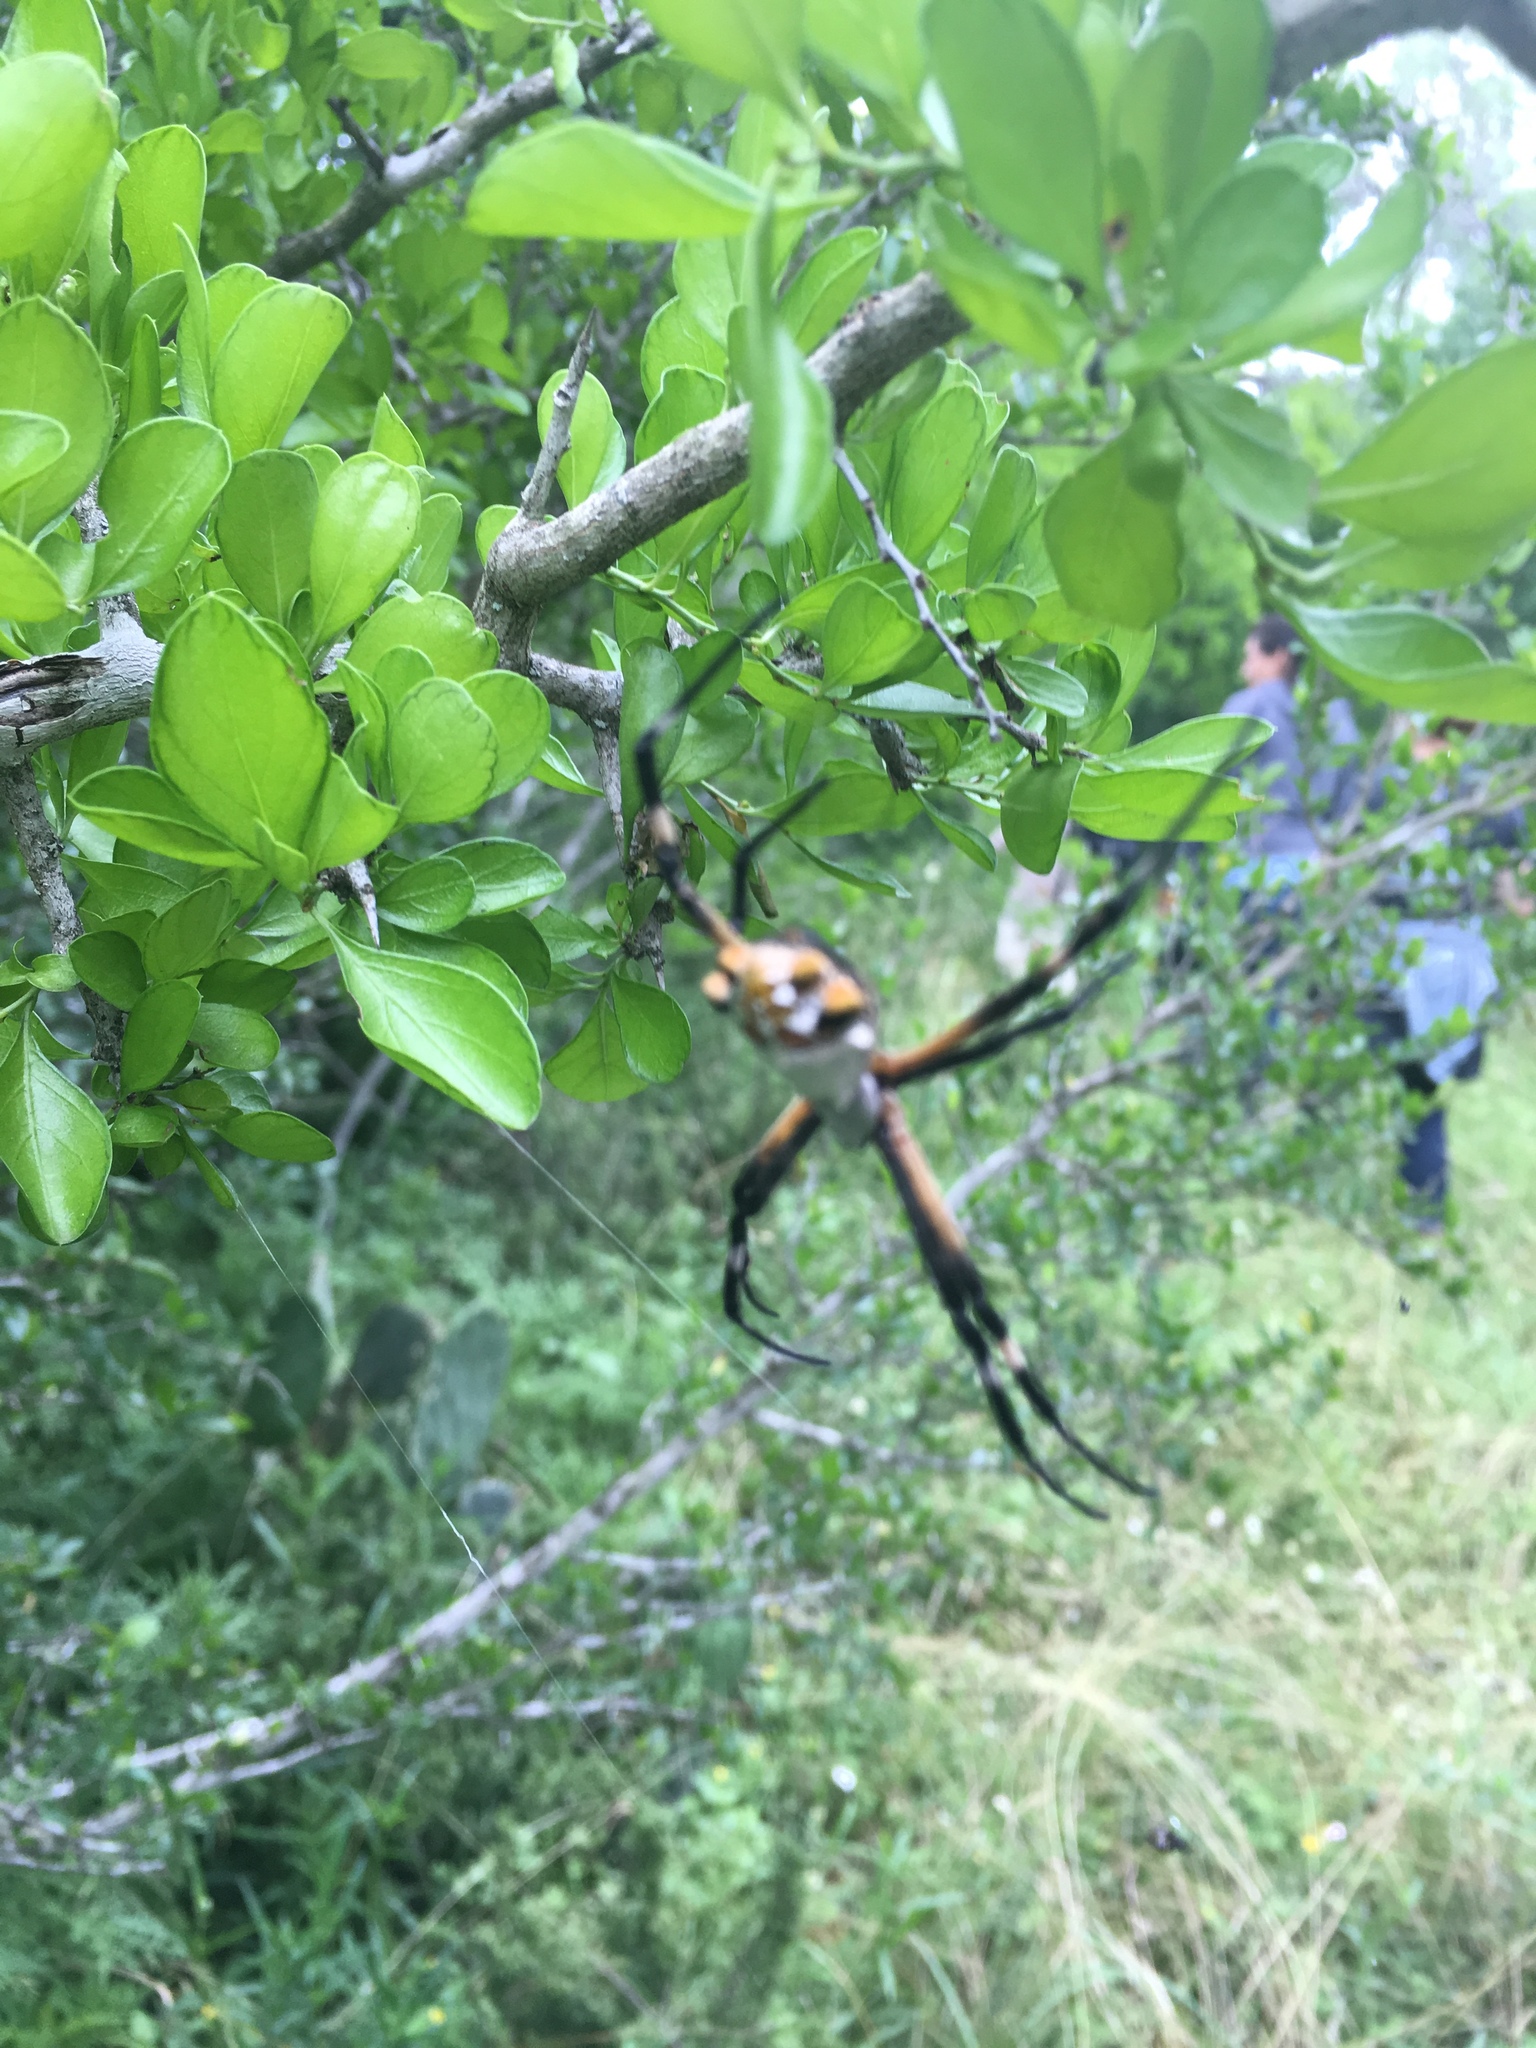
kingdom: Animalia
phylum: Arthropoda
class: Arachnida
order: Araneae
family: Araneidae
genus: Argiope
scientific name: Argiope argentata
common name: Orb weavers
